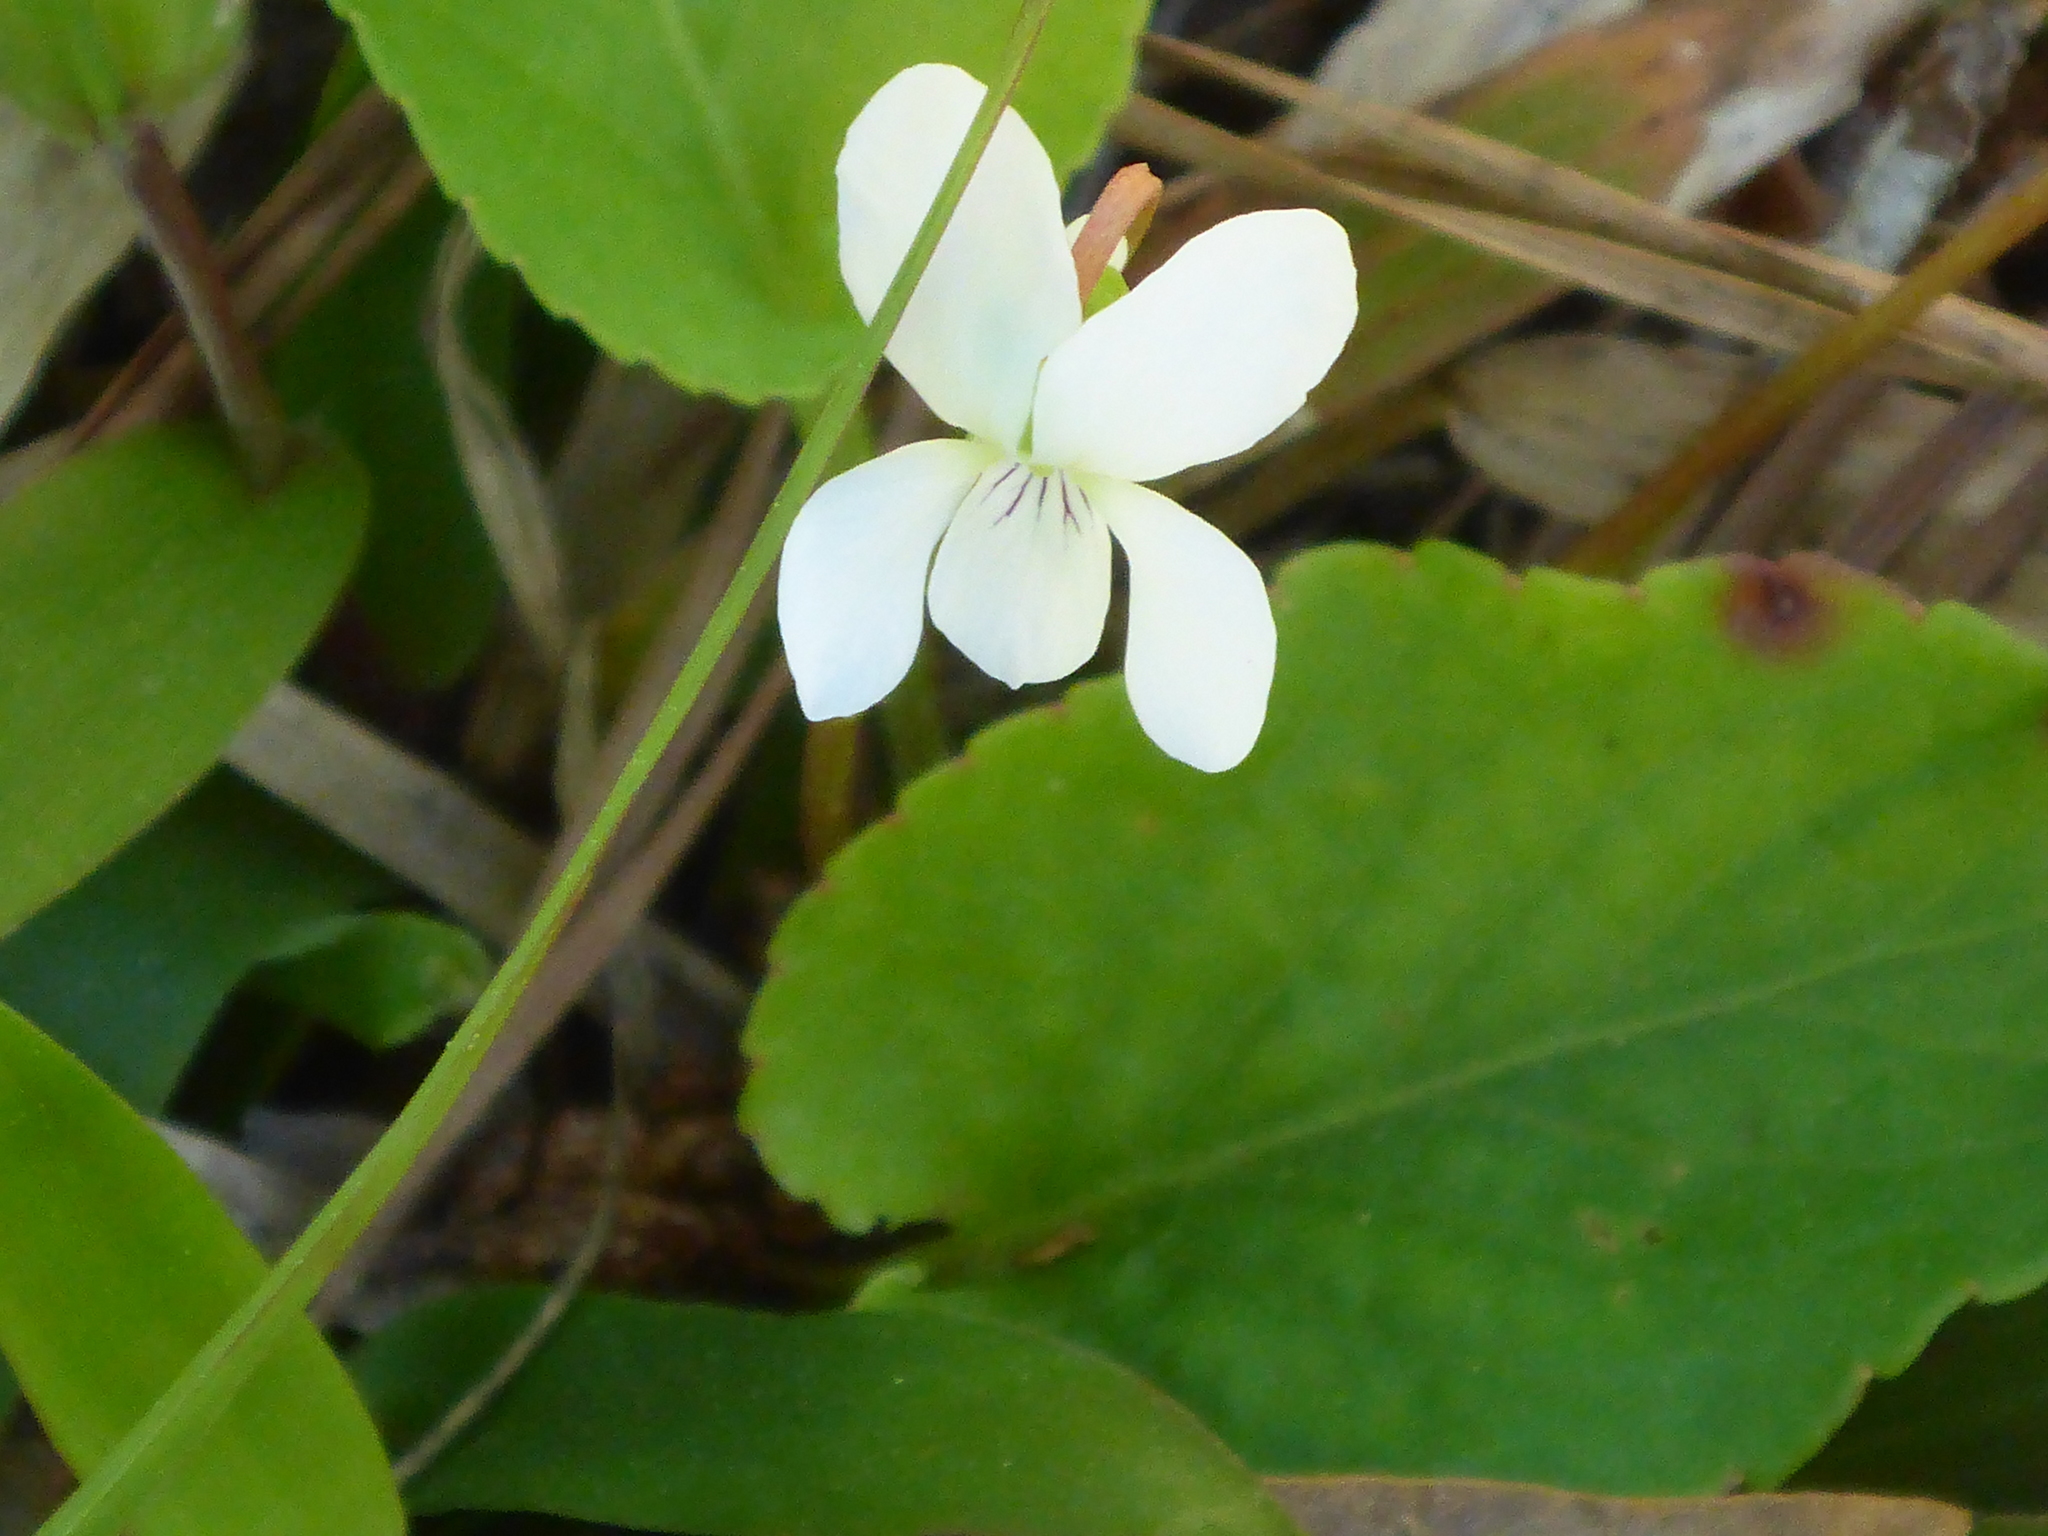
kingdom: Plantae
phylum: Tracheophyta
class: Magnoliopsida
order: Malpighiales
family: Violaceae
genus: Viola
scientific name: Viola primulifolia
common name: Primrose-leaf violet
